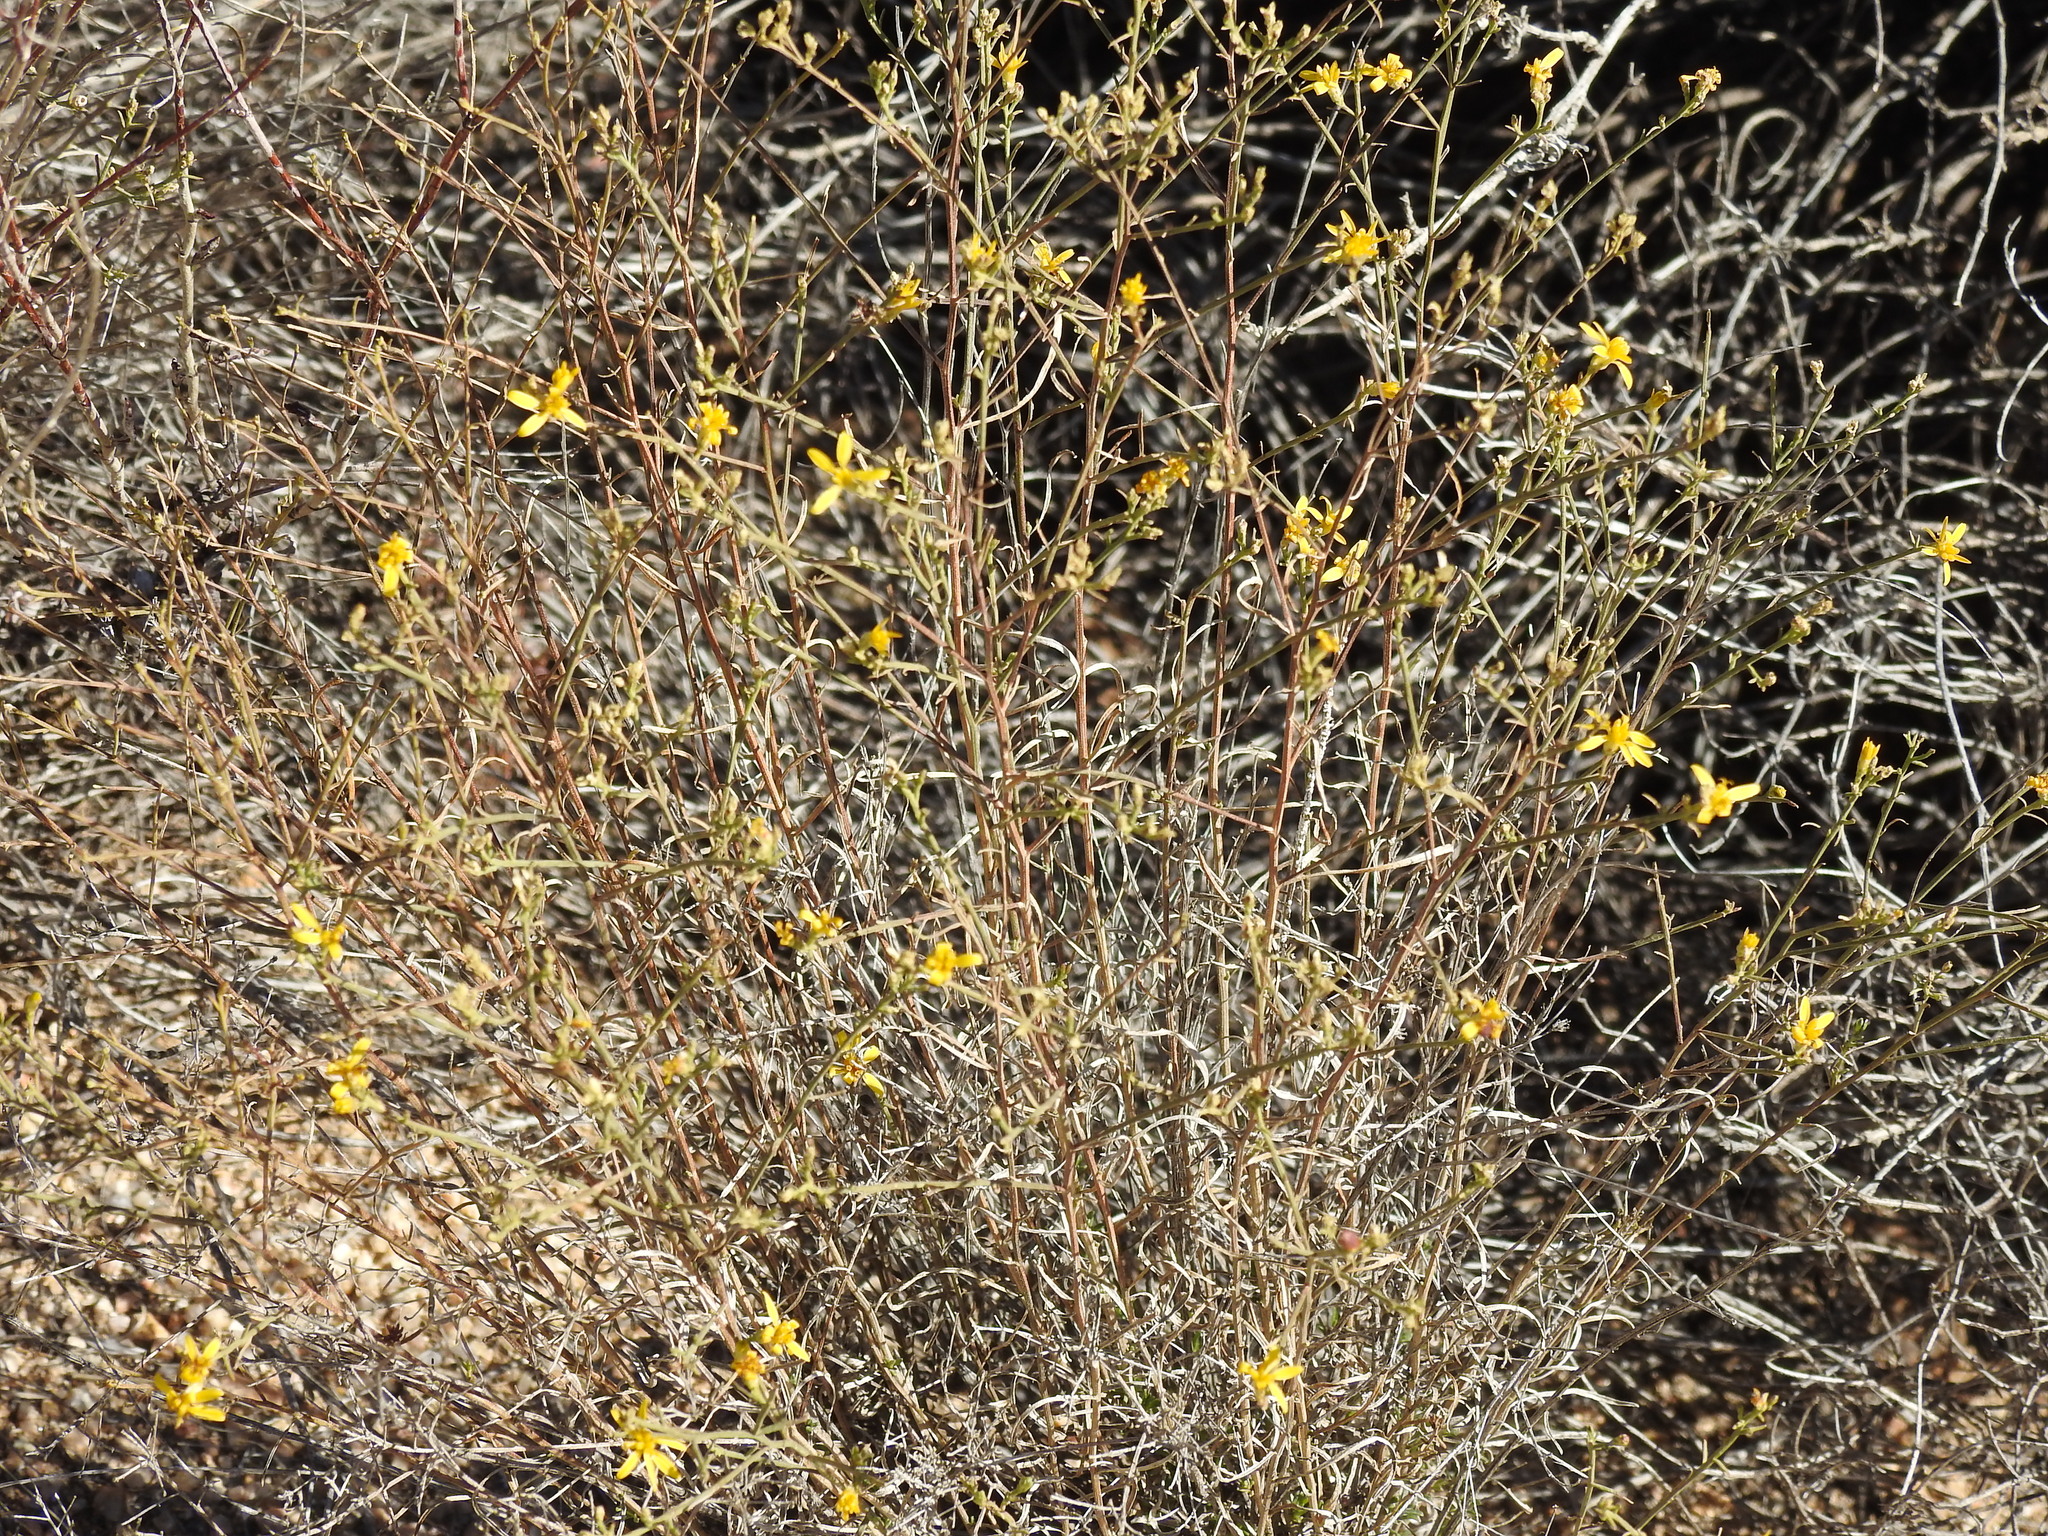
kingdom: Plantae
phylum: Tracheophyta
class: Magnoliopsida
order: Asterales
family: Asteraceae
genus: Gutierrezia
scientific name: Gutierrezia sarothrae
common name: Broom snakeweed
